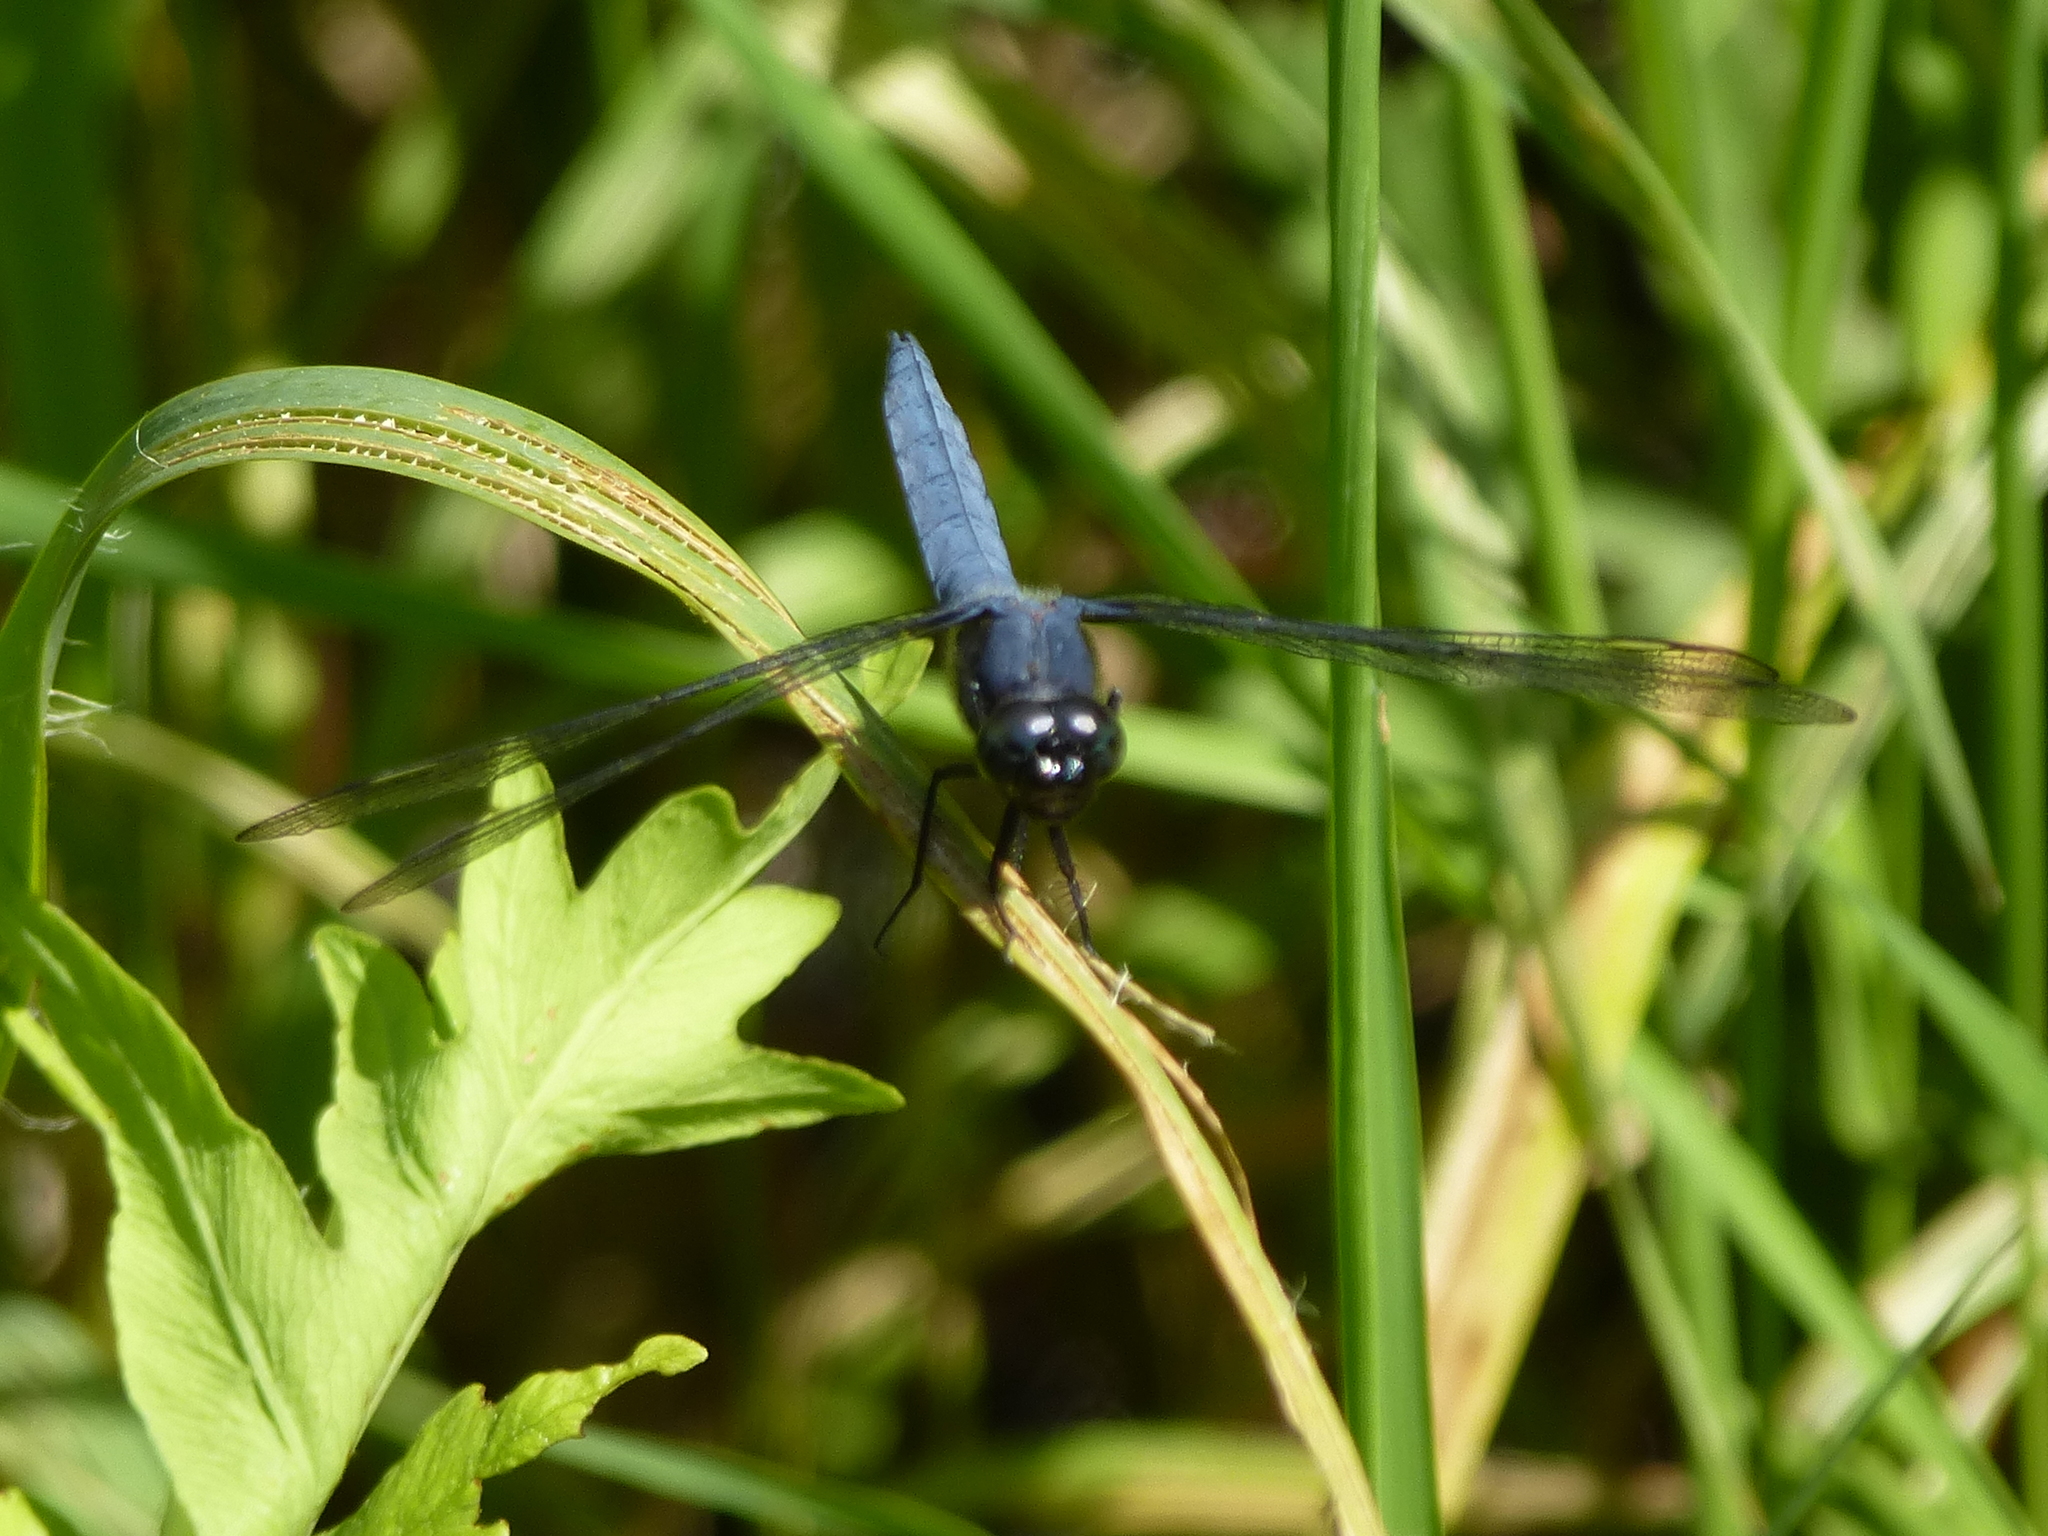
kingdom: Animalia
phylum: Arthropoda
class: Insecta
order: Odonata
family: Libellulidae
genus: Libellula
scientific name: Libellula incesta
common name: Slaty skimmer
